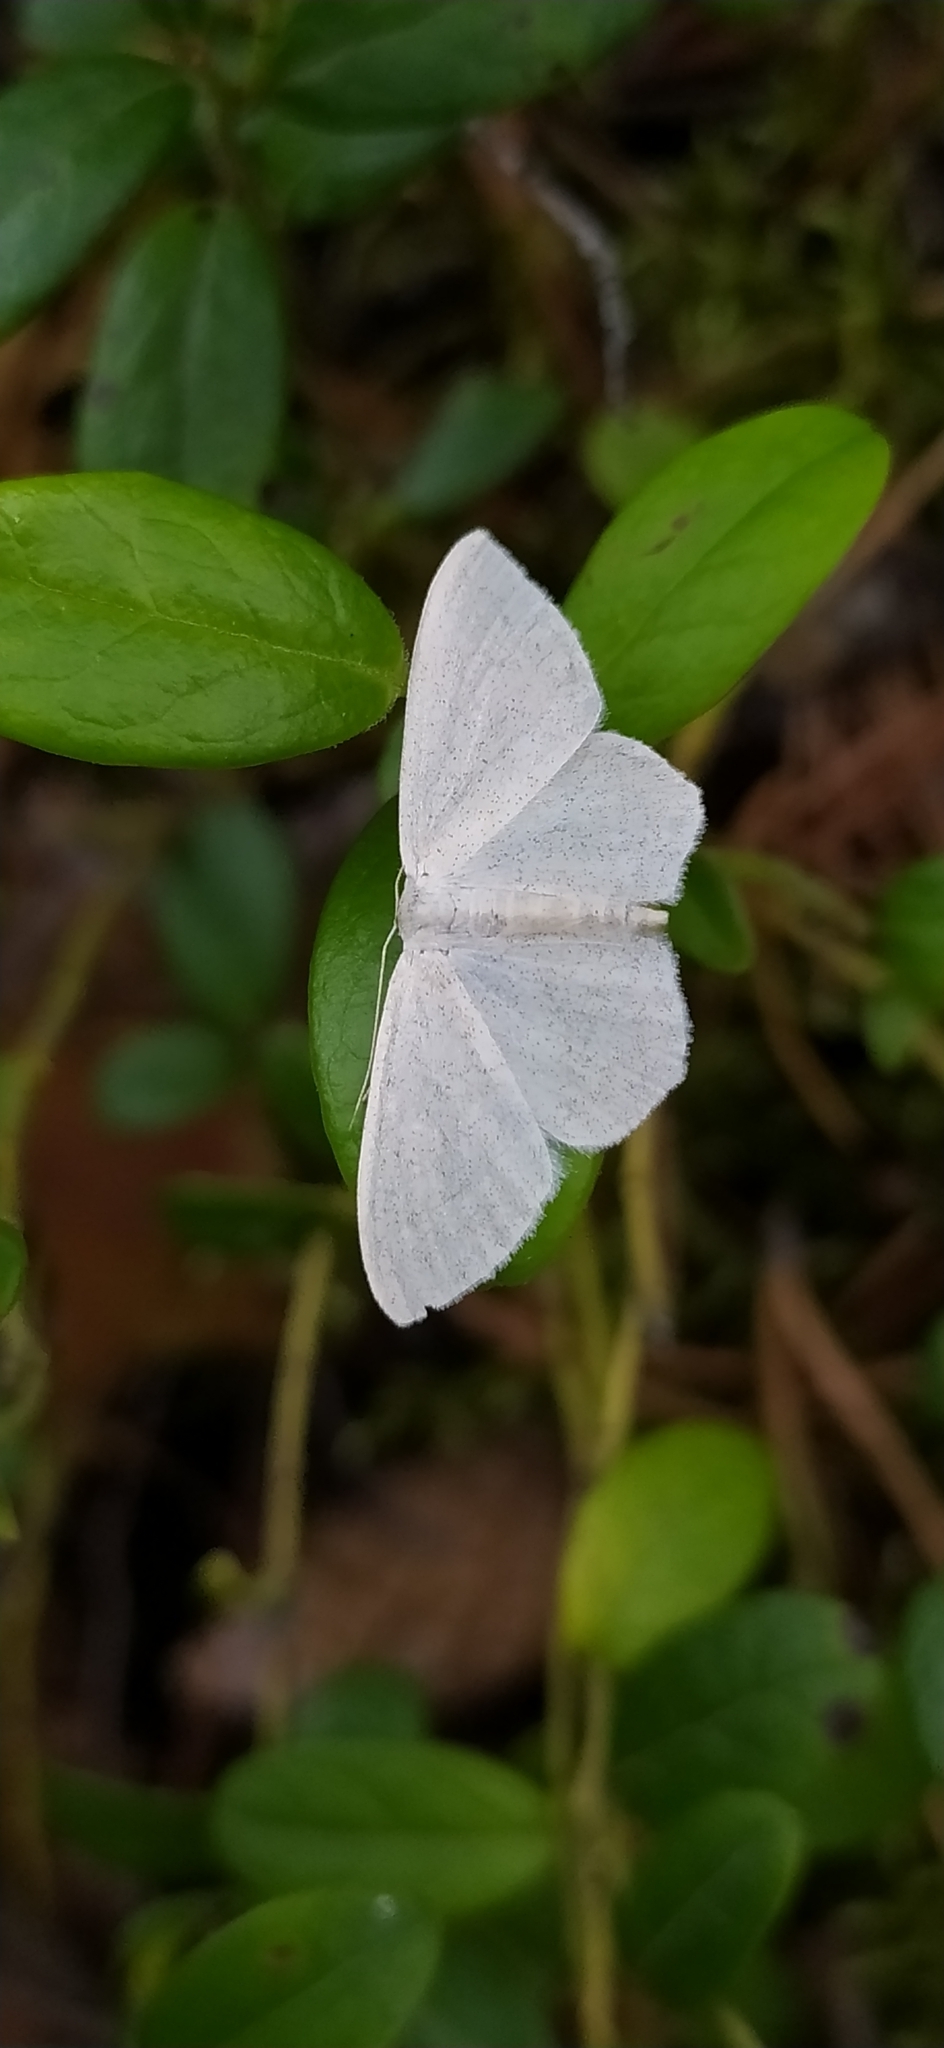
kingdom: Animalia
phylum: Arthropoda
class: Insecta
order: Lepidoptera
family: Geometridae
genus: Scopula
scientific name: Scopula floslactata
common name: Cream wave
